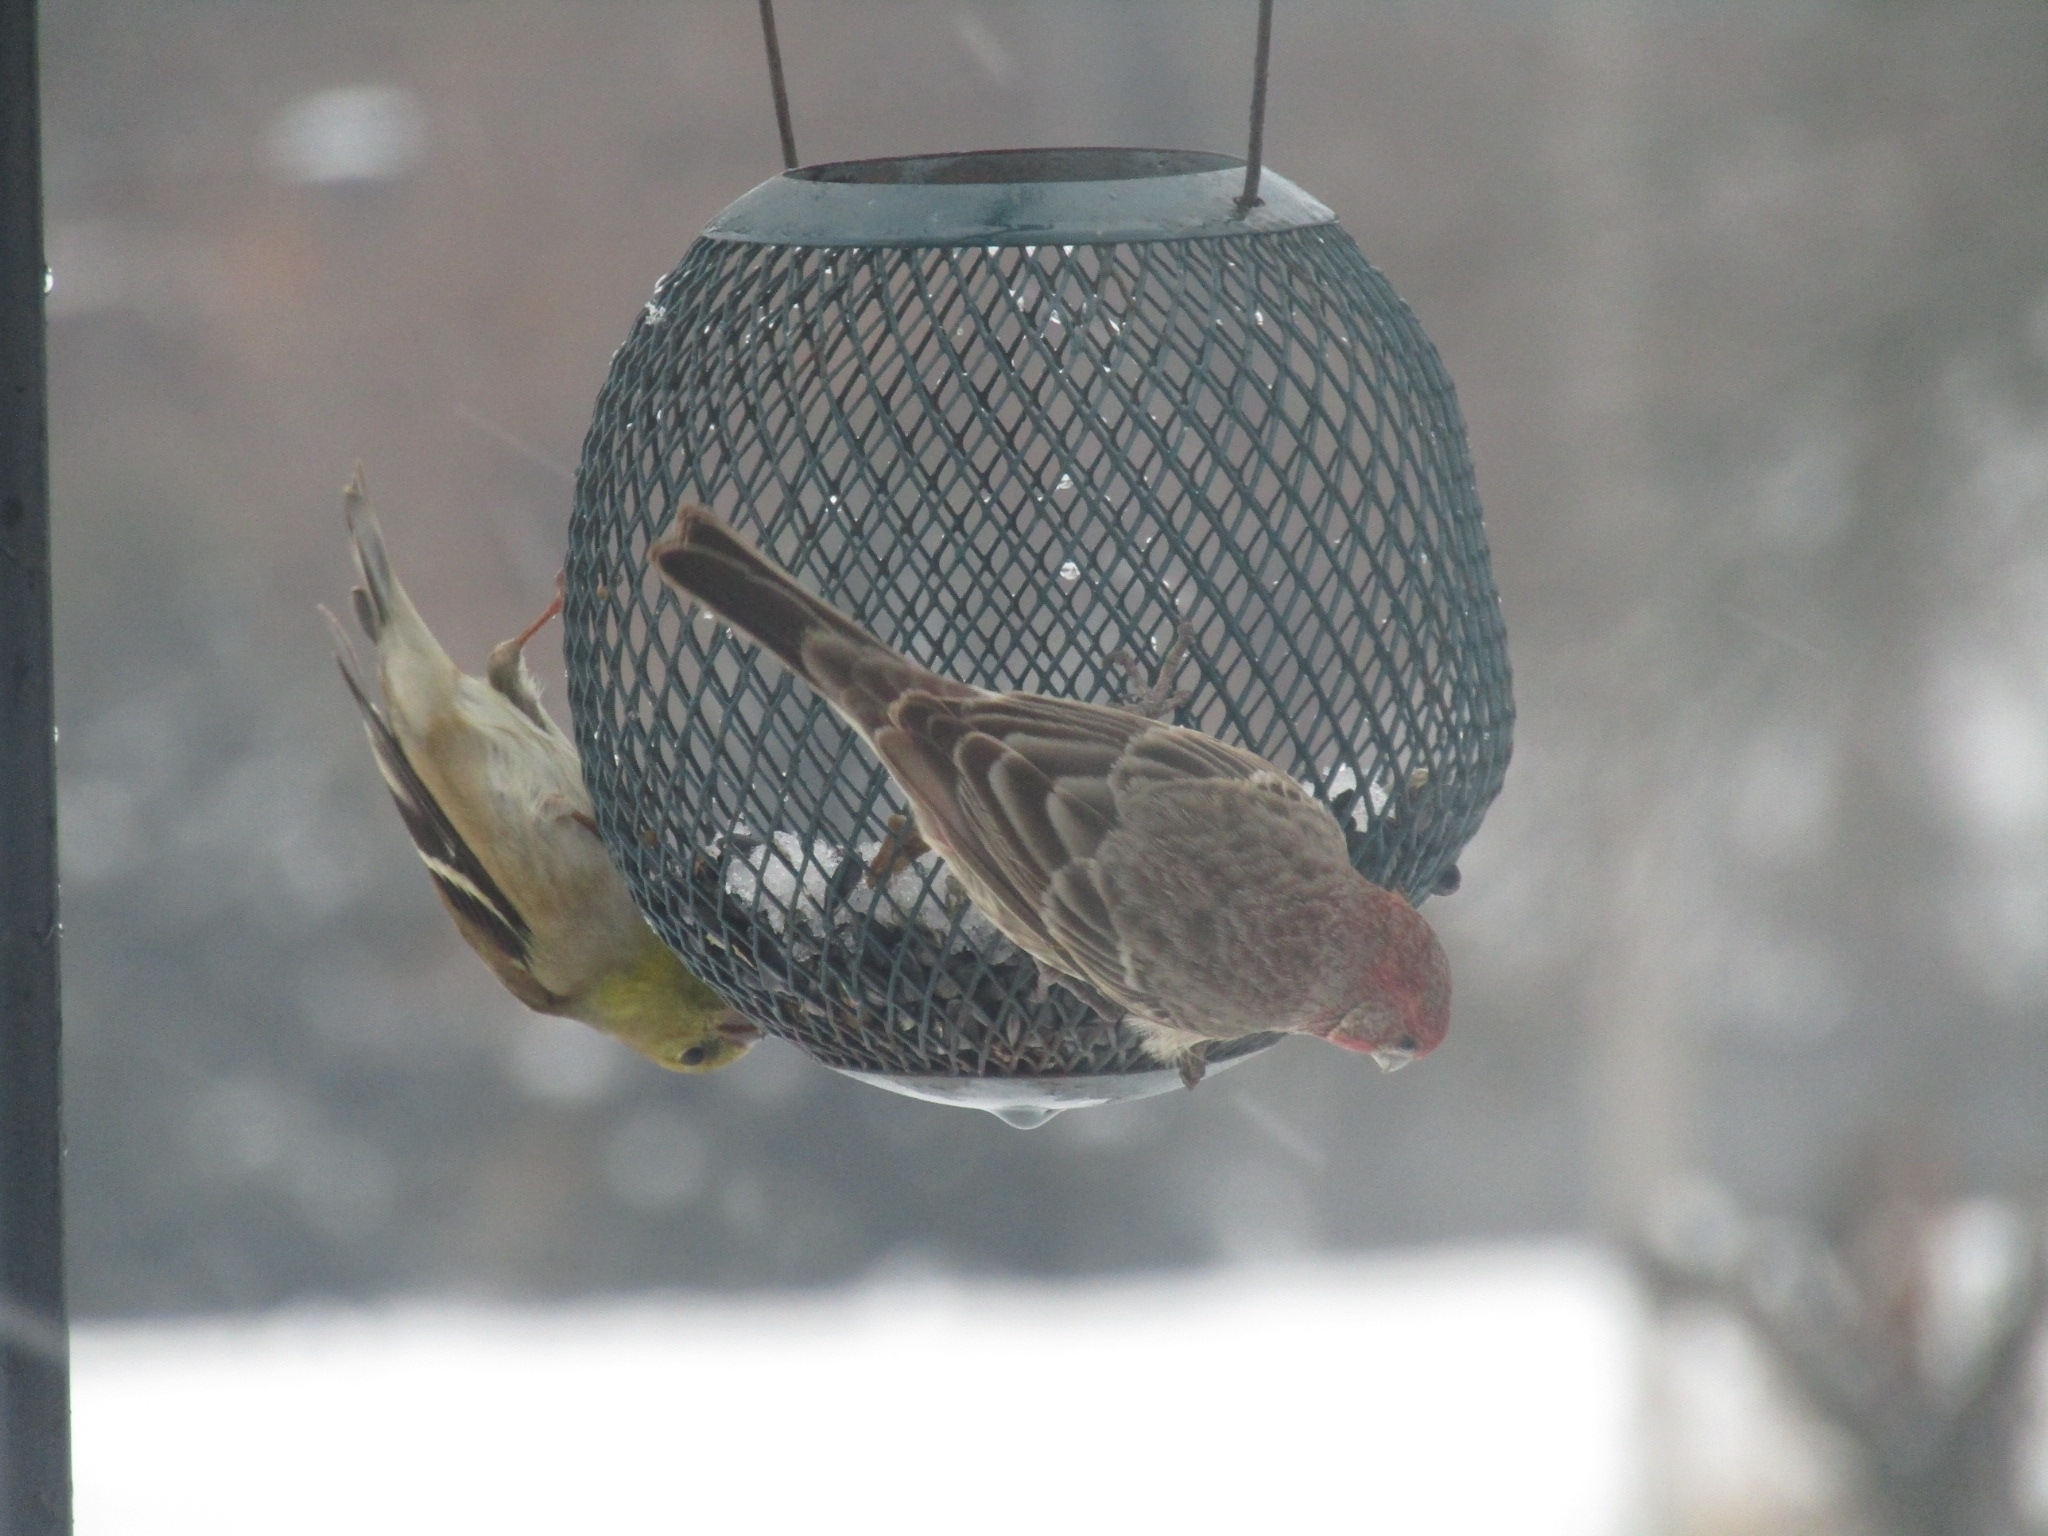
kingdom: Animalia
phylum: Chordata
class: Aves
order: Passeriformes
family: Fringillidae
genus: Spinus
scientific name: Spinus tristis
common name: American goldfinch
